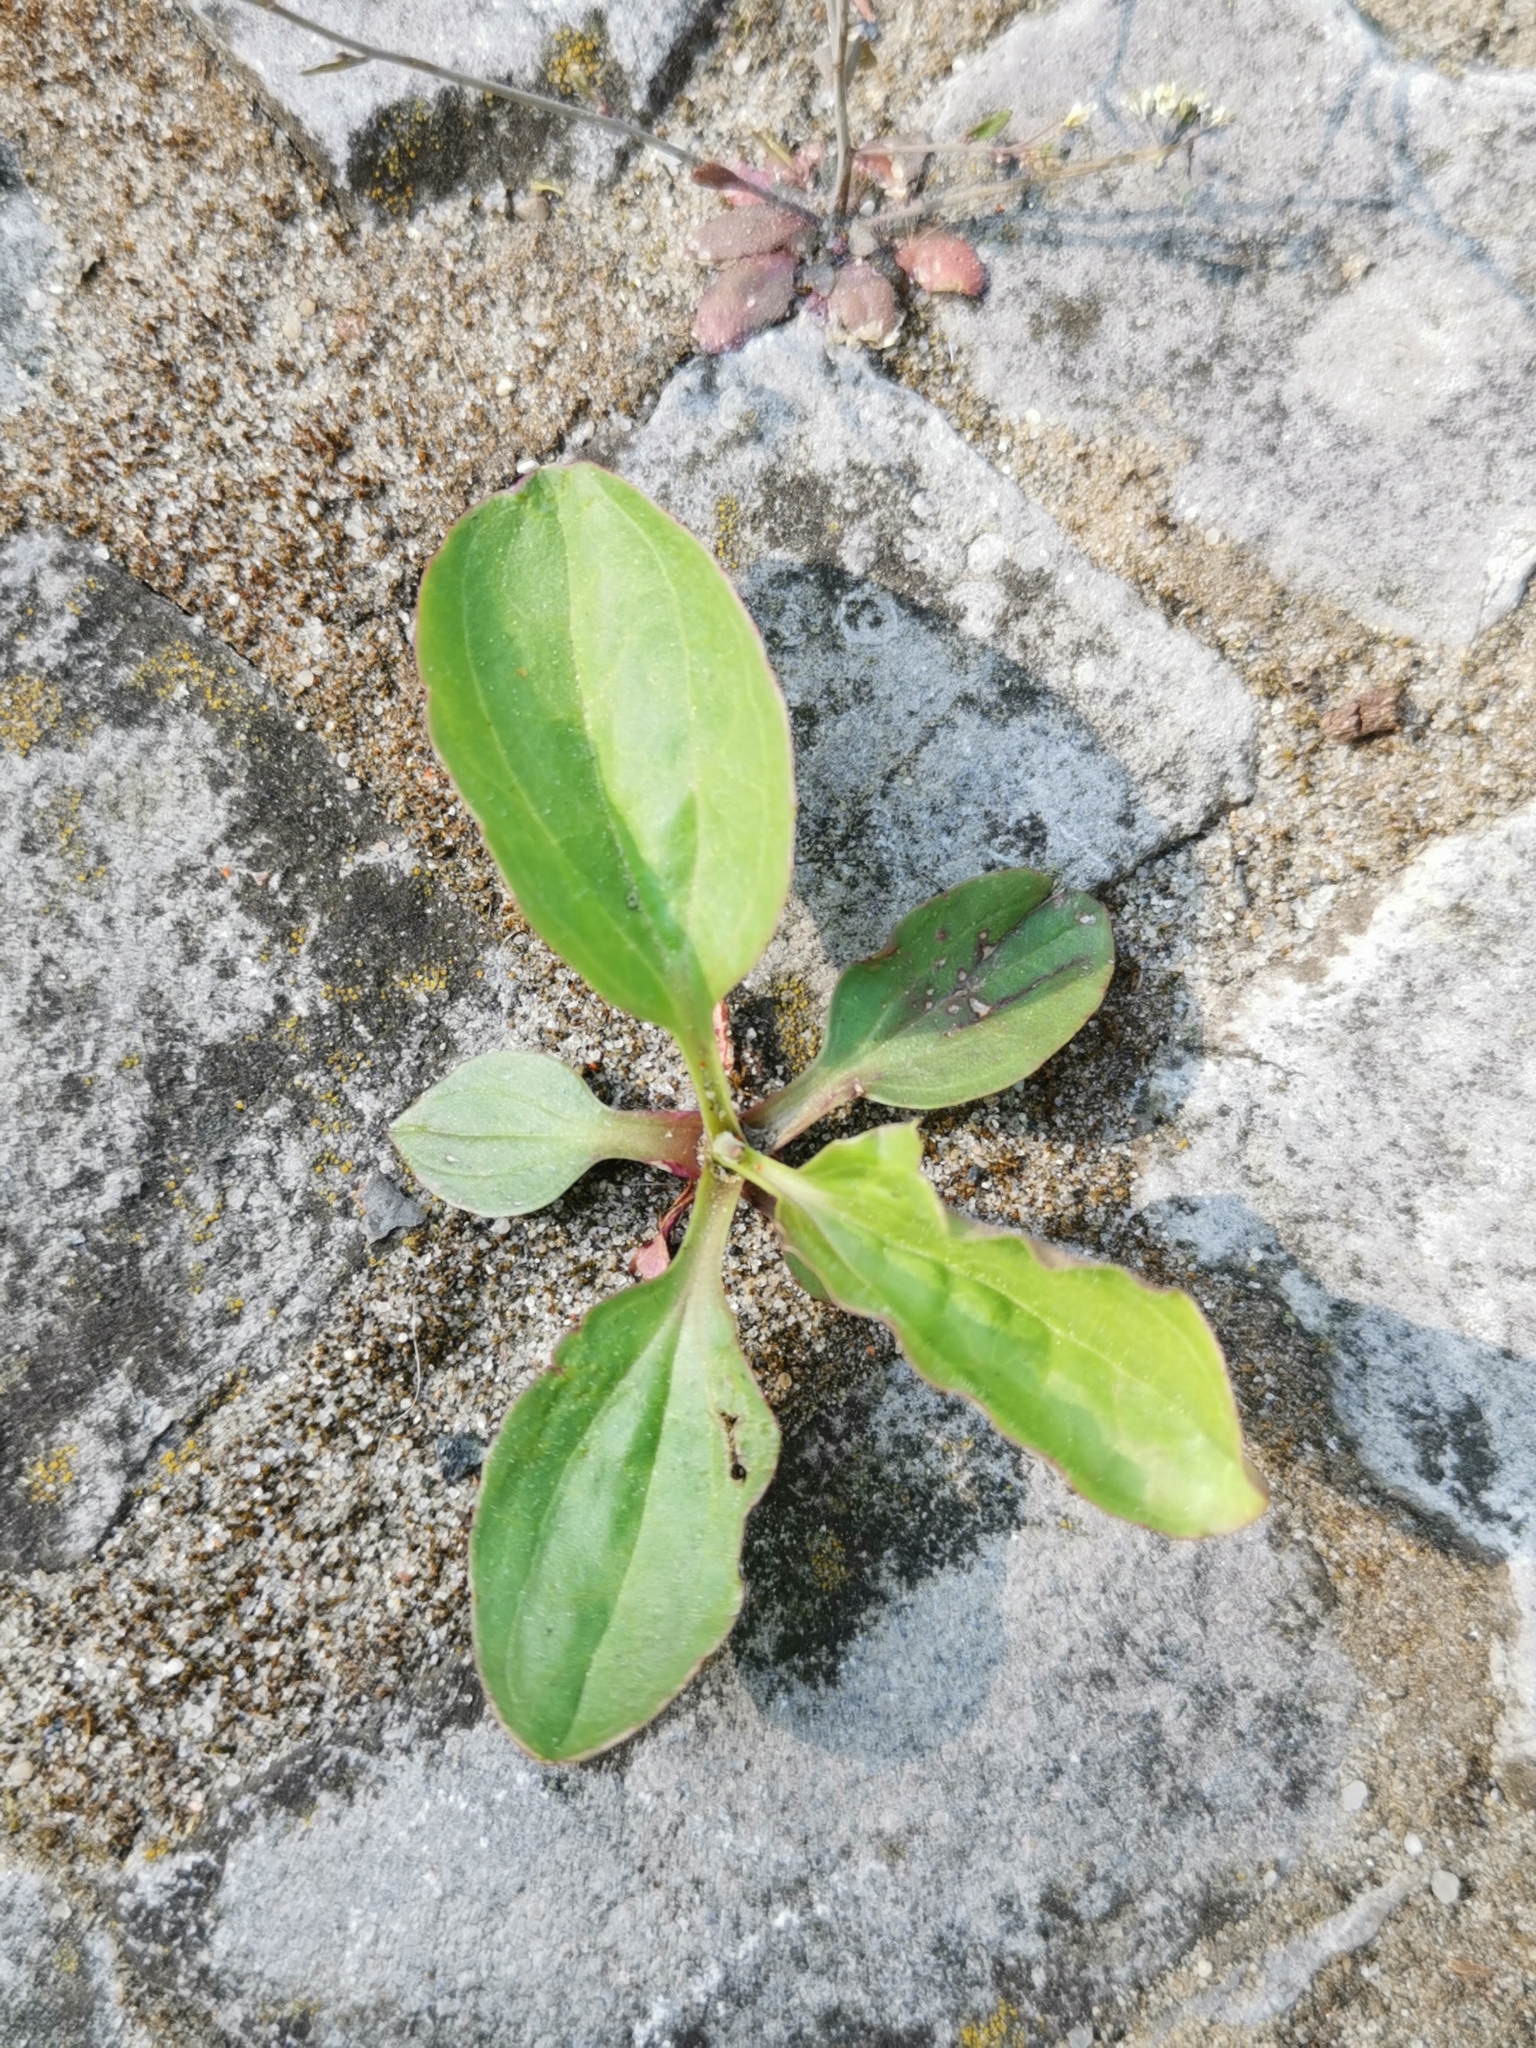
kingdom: Plantae
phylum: Tracheophyta
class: Magnoliopsida
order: Lamiales
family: Plantaginaceae
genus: Plantago
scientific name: Plantago major
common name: Common plantain
